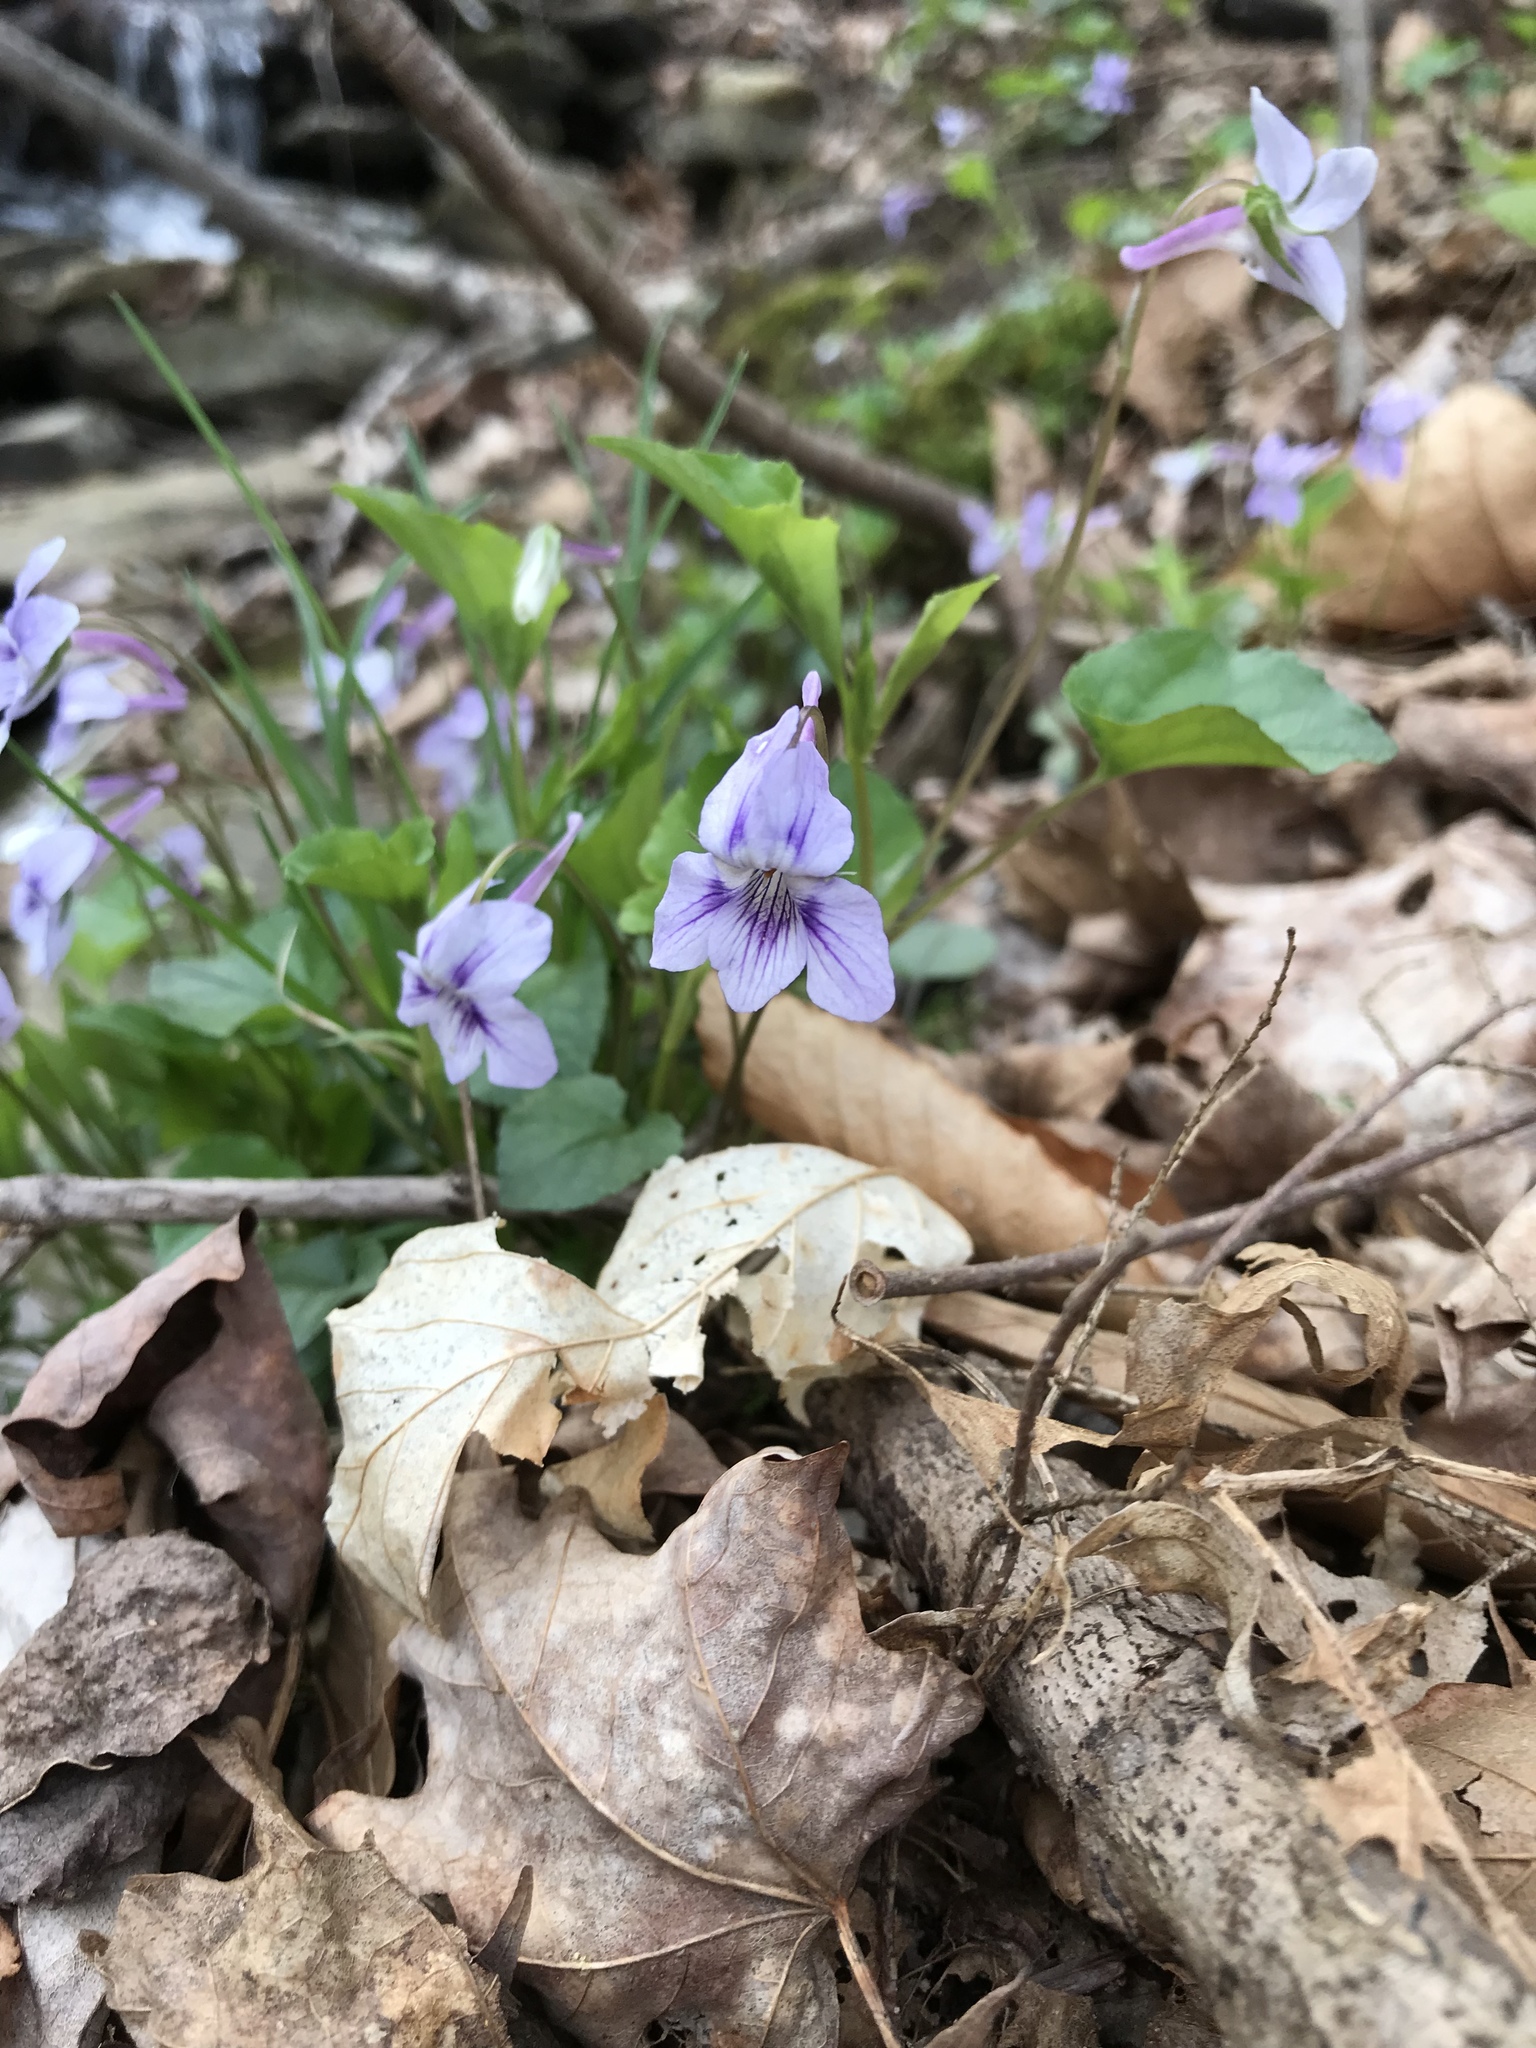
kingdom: Plantae
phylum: Tracheophyta
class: Magnoliopsida
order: Malpighiales
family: Violaceae
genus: Viola
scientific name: Viola rostrata
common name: Long-spur violet
